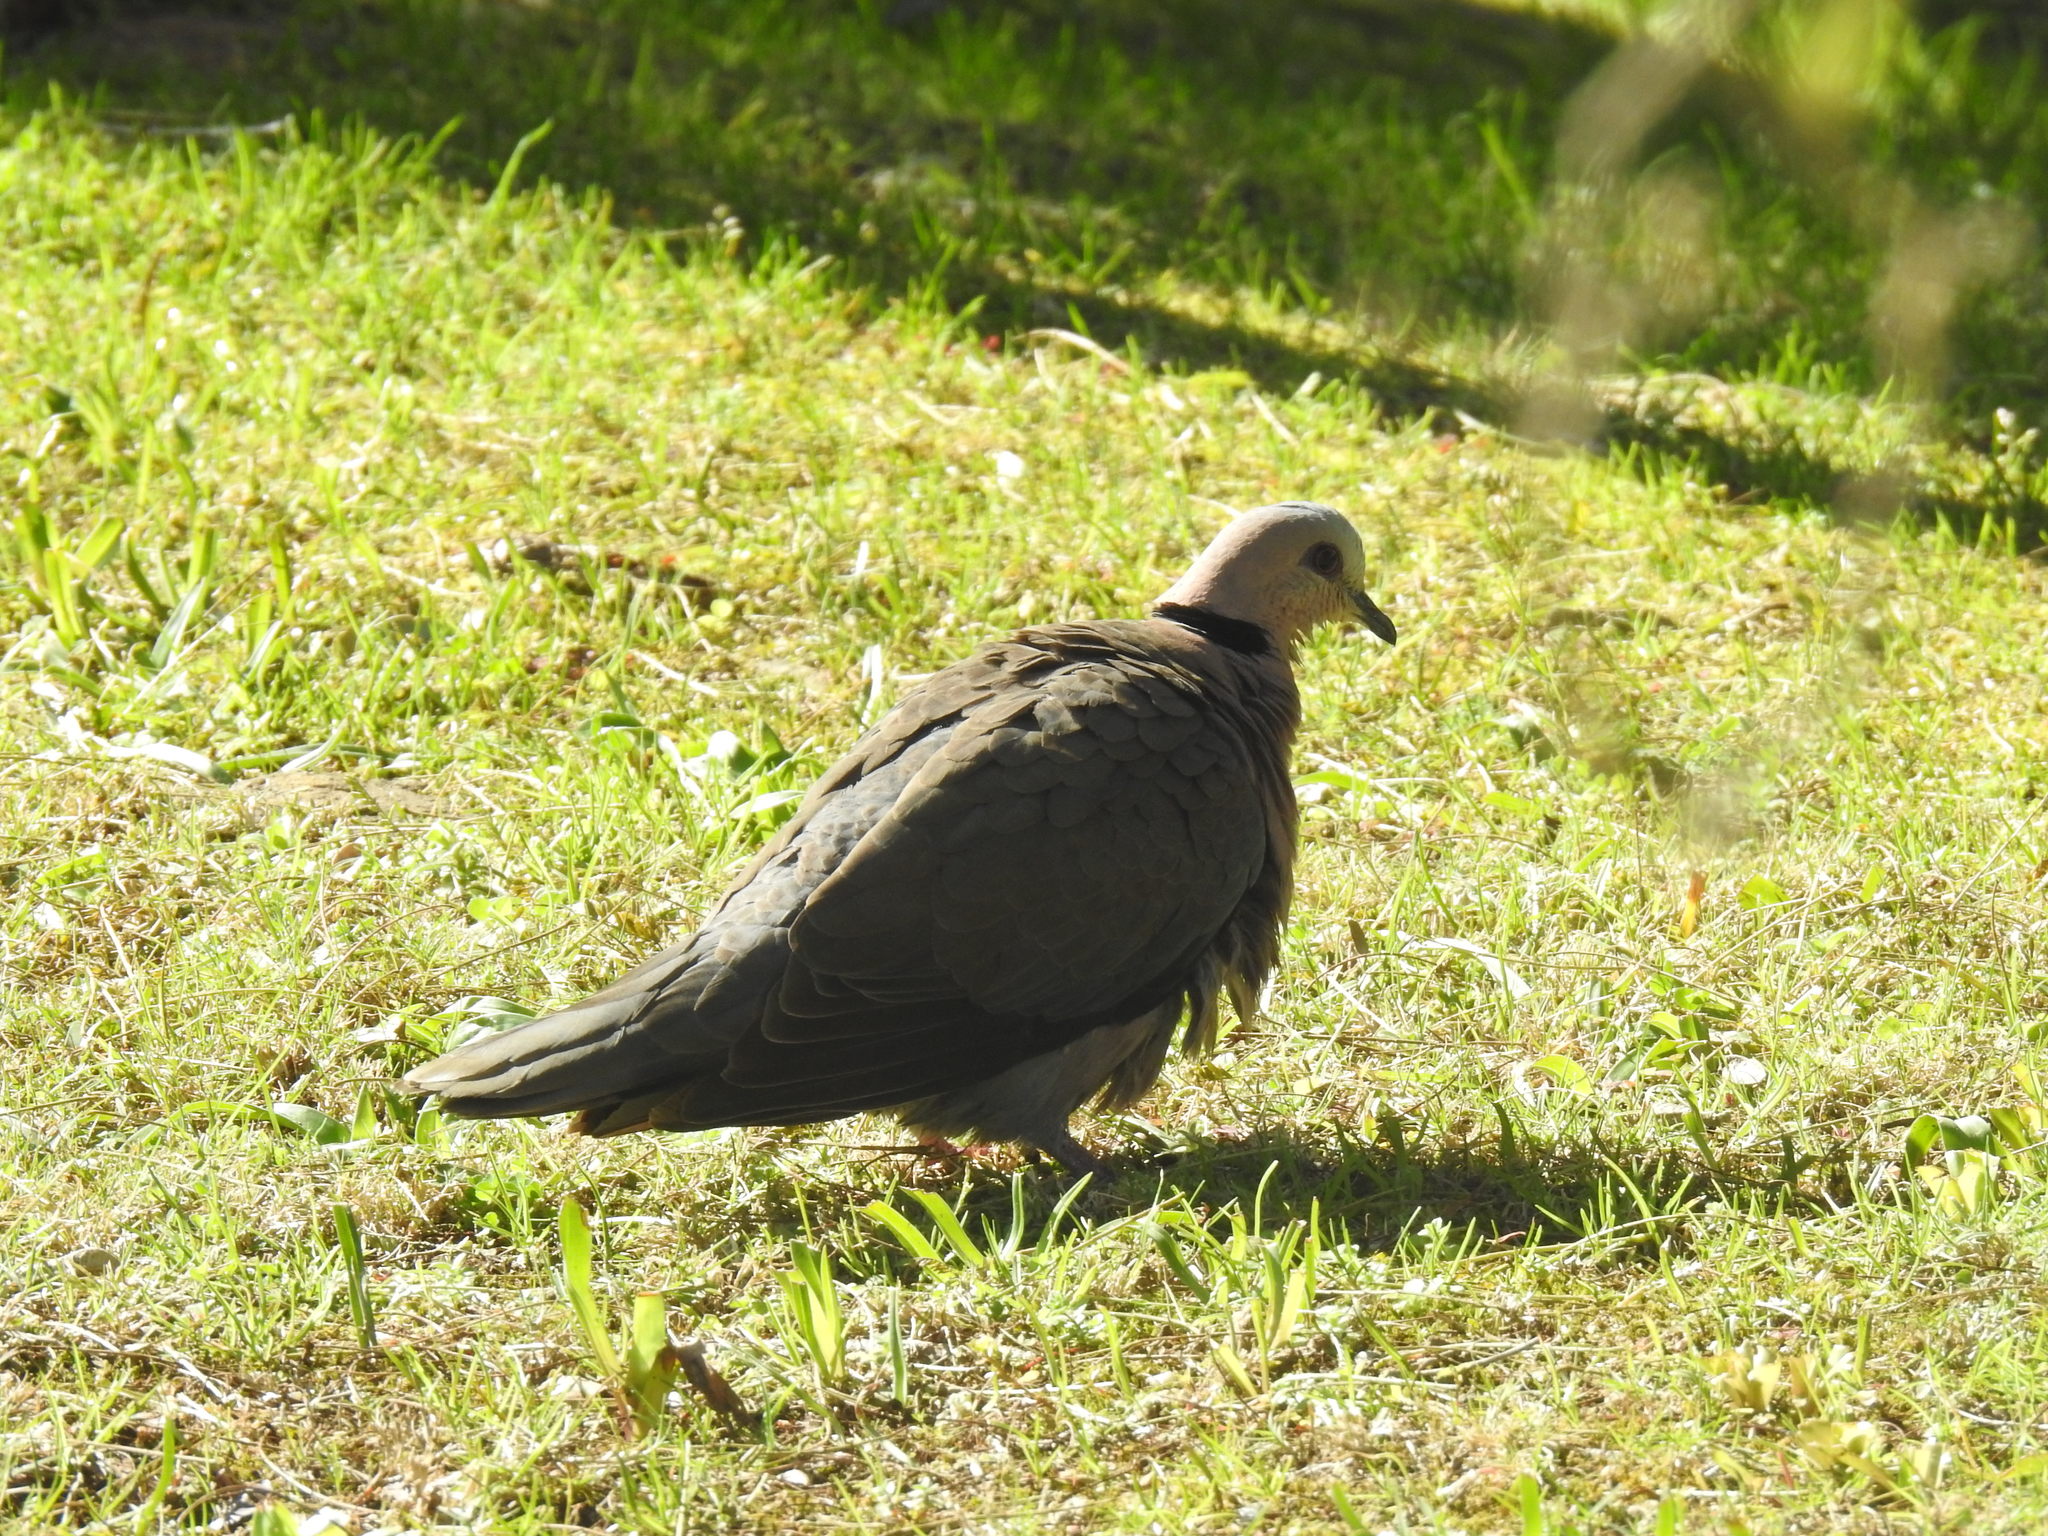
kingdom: Animalia
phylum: Chordata
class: Aves
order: Columbiformes
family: Columbidae
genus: Streptopelia
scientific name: Streptopelia semitorquata
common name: Red-eyed dove
